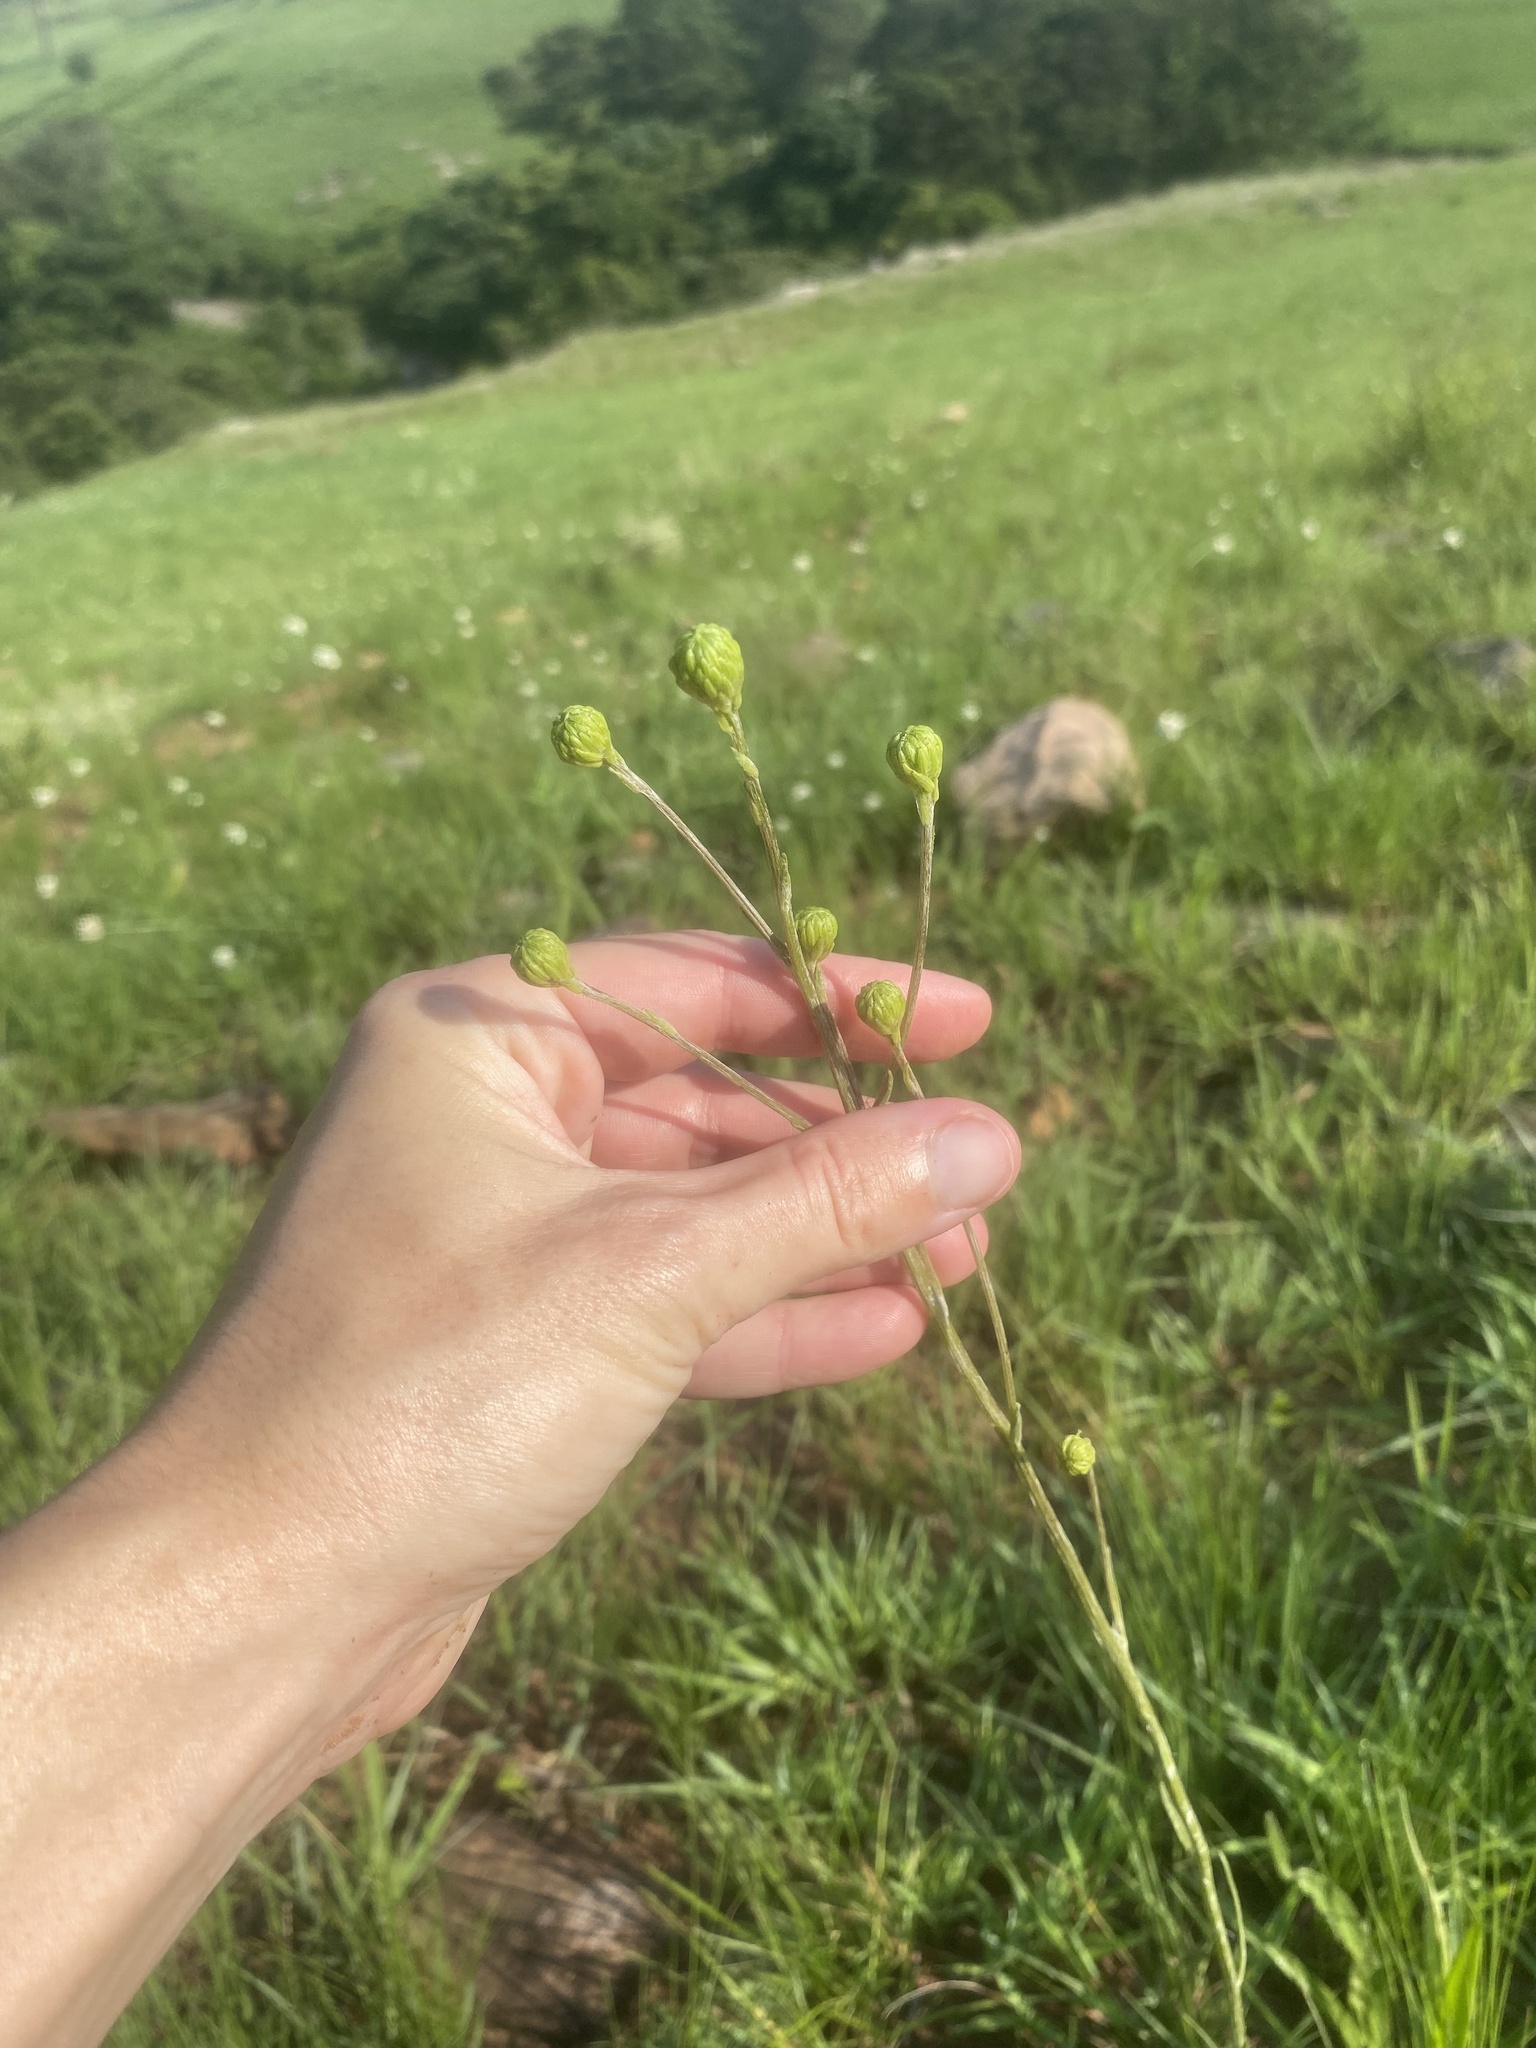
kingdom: Plantae
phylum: Tracheophyta
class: Magnoliopsida
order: Asterales
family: Asteraceae
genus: Senecio
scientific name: Senecio citriceps
